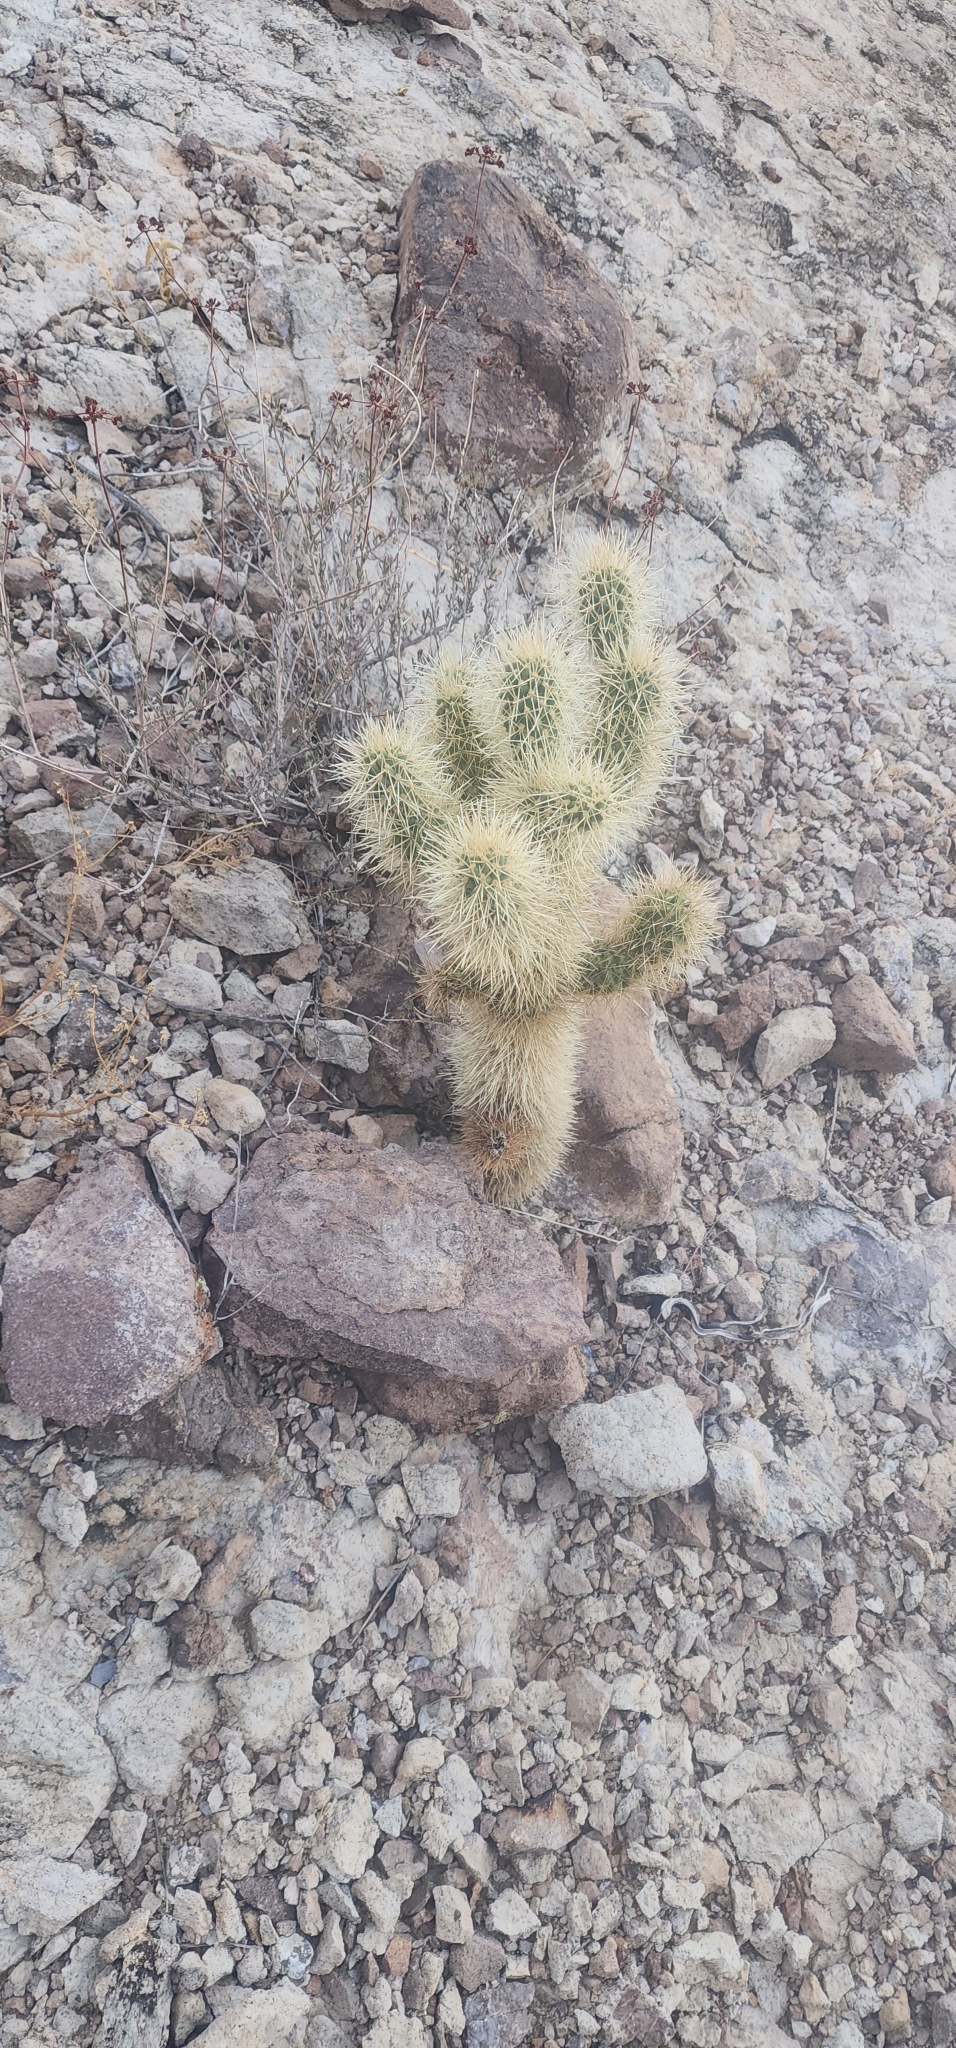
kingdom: Plantae
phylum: Tracheophyta
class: Magnoliopsida
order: Caryophyllales
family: Cactaceae
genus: Cylindropuntia
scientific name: Cylindropuntia fosbergii
